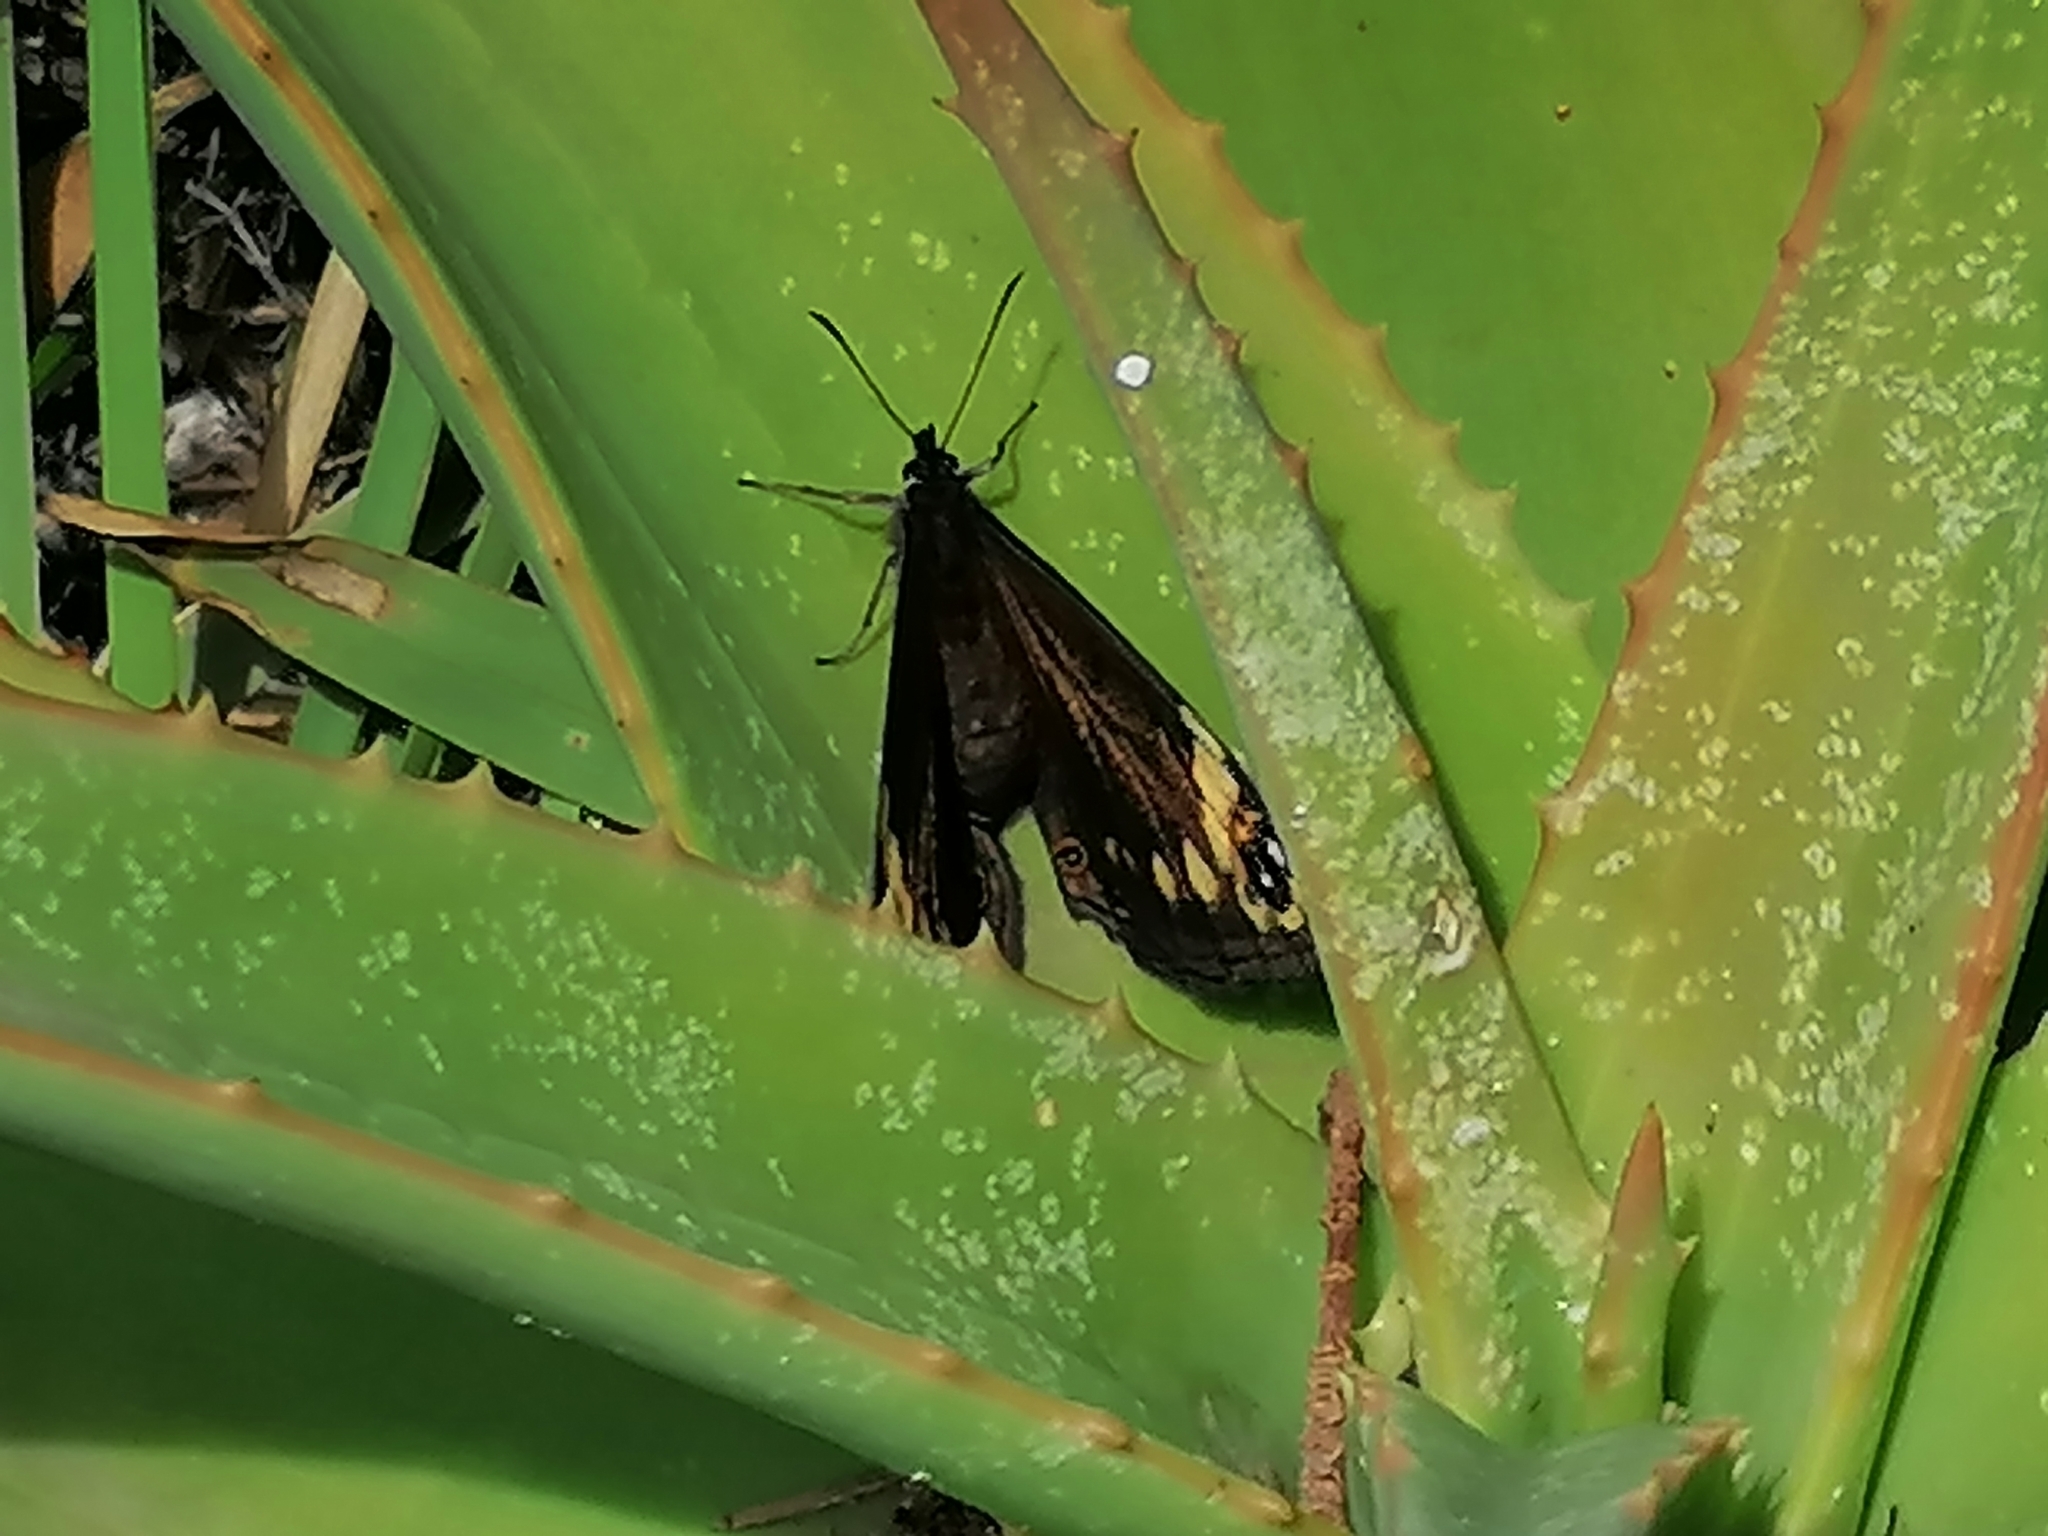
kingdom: Animalia
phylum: Arthropoda
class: Insecta
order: Lepidoptera
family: Nymphalidae
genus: Dira
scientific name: Dira clytus
